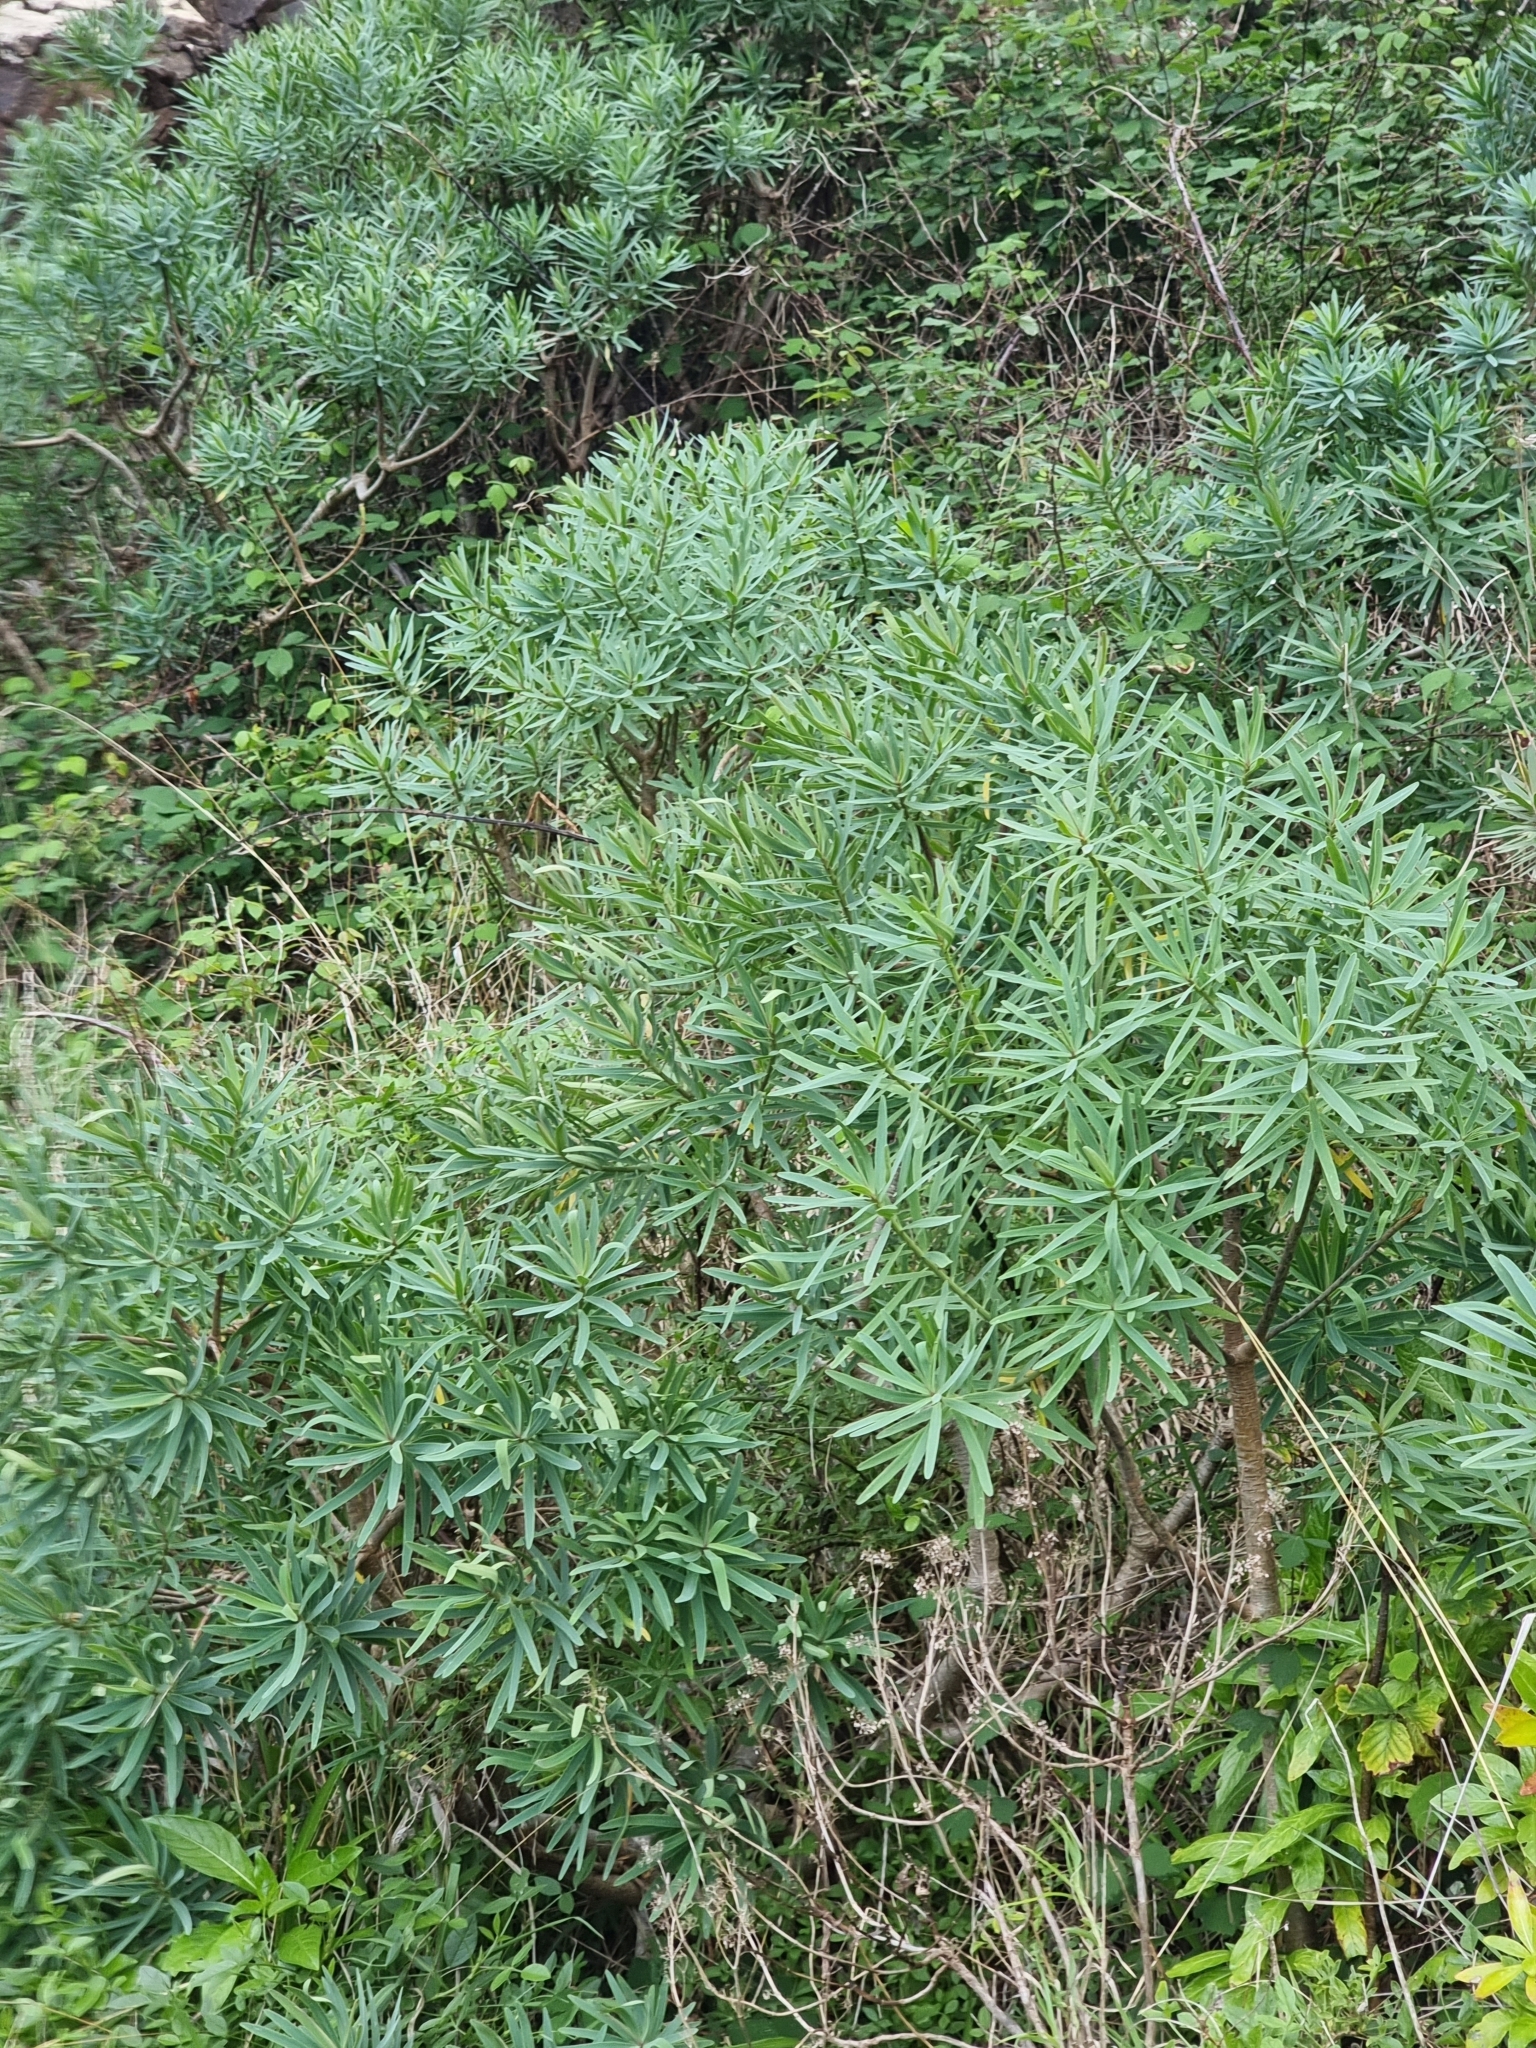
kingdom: Plantae
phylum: Tracheophyta
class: Magnoliopsida
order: Malpighiales
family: Euphorbiaceae
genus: Euphorbia
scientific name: Euphorbia piscatoria
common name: Fish-stunning spurge
